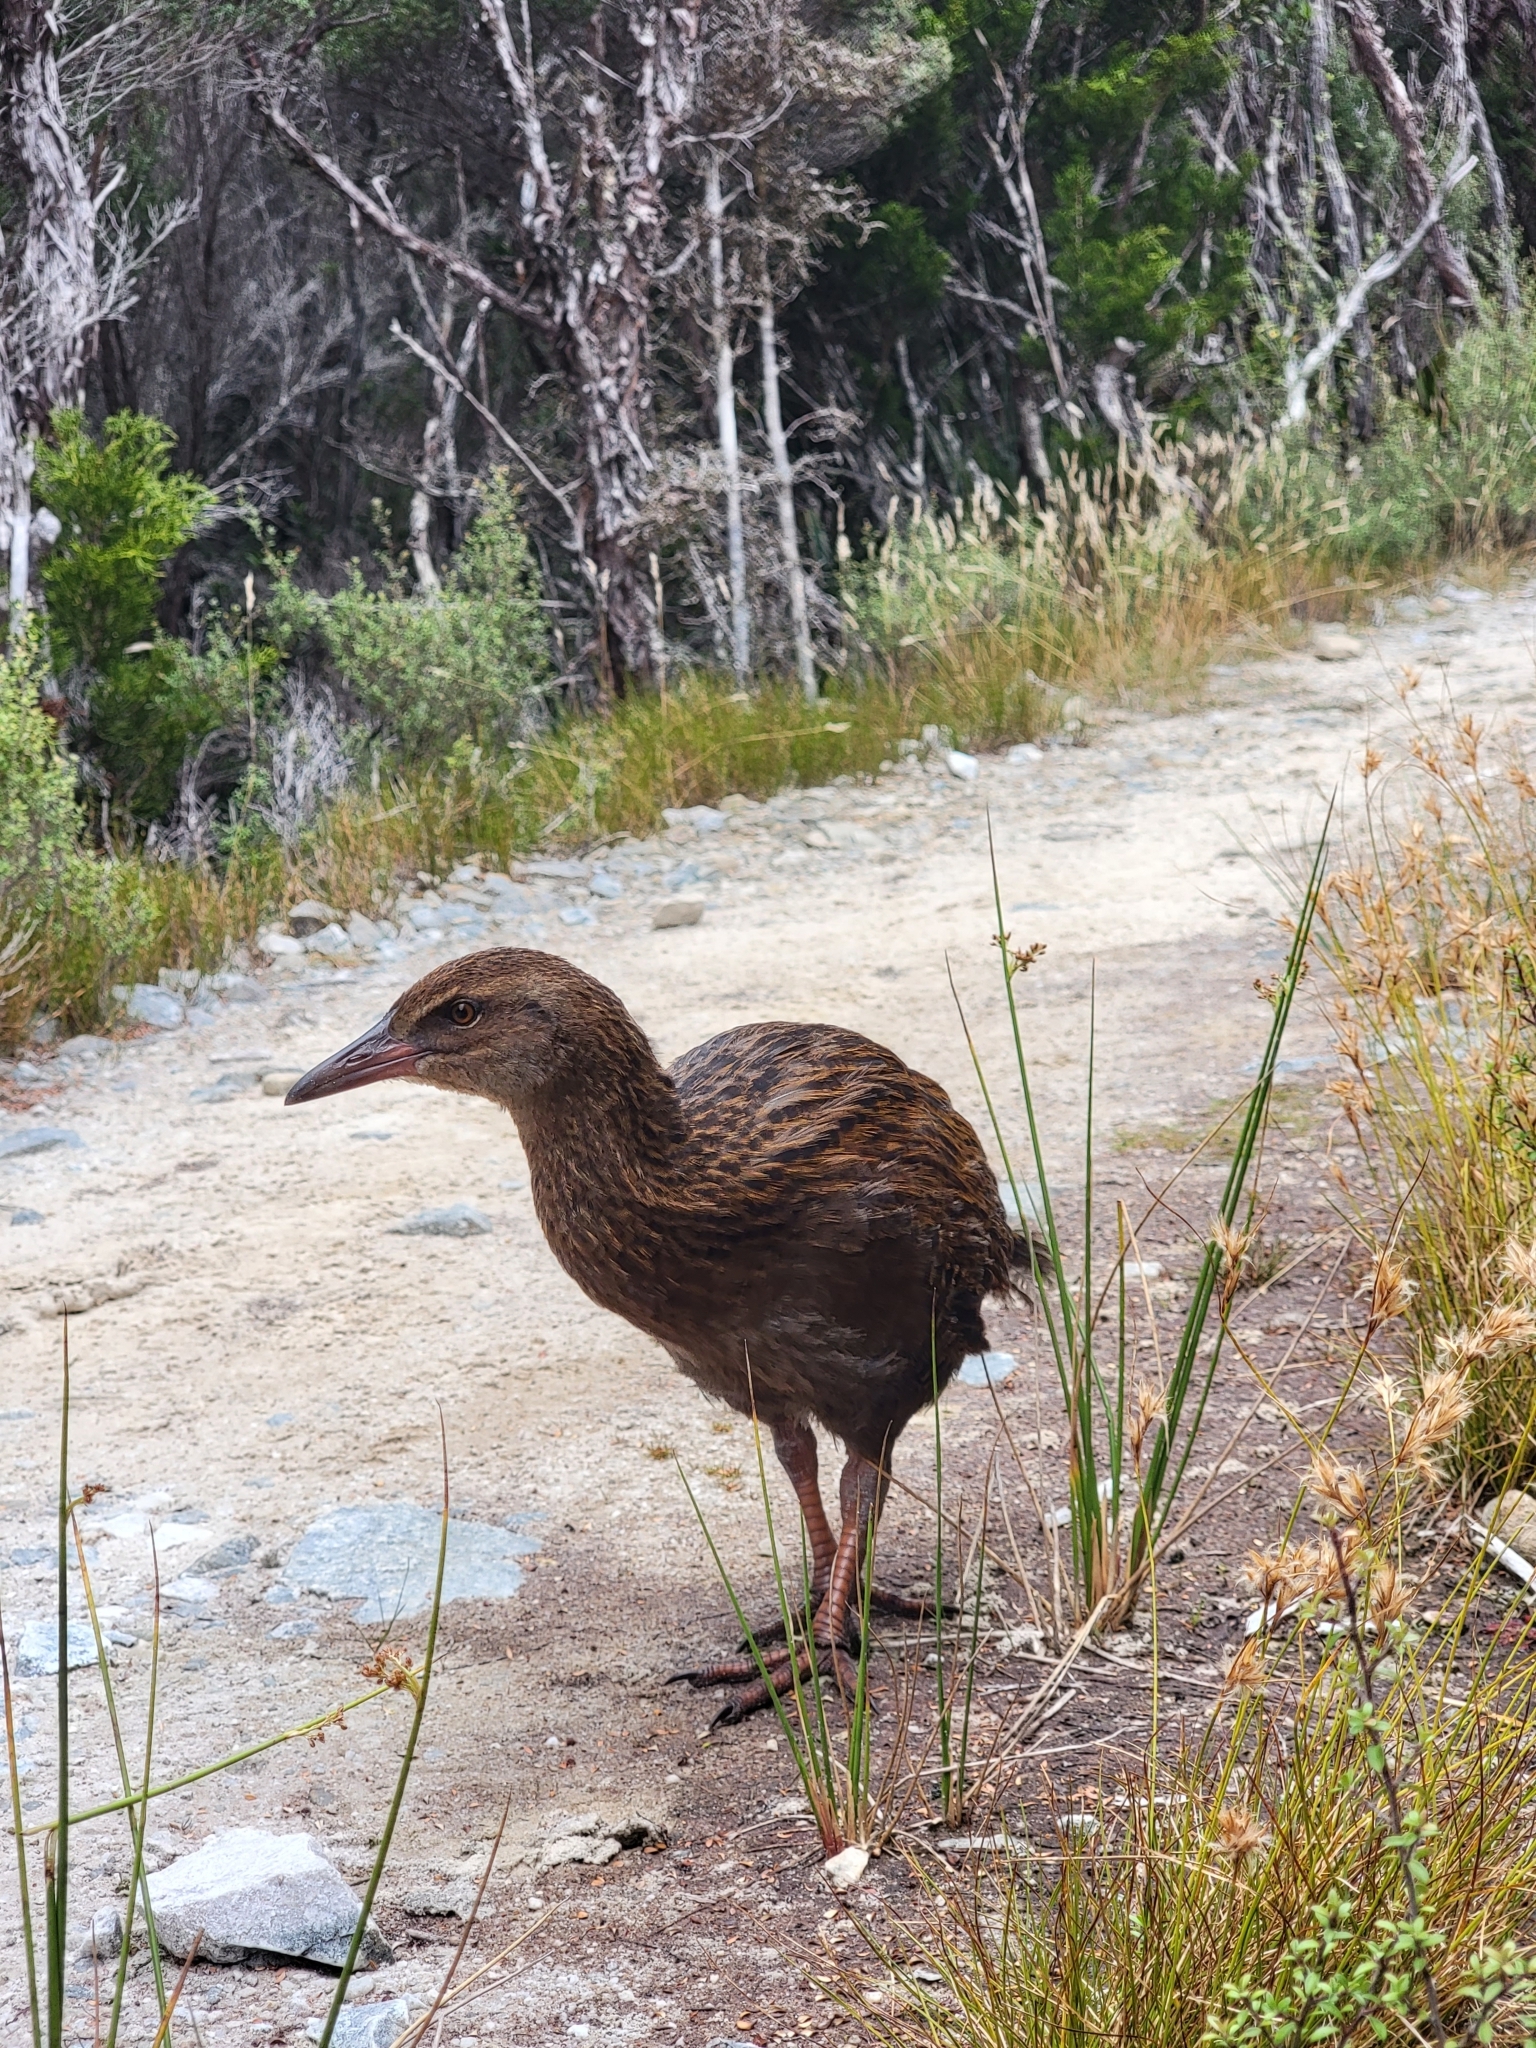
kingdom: Animalia
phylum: Chordata
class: Aves
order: Gruiformes
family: Rallidae
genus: Gallirallus
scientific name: Gallirallus australis
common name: Weka
